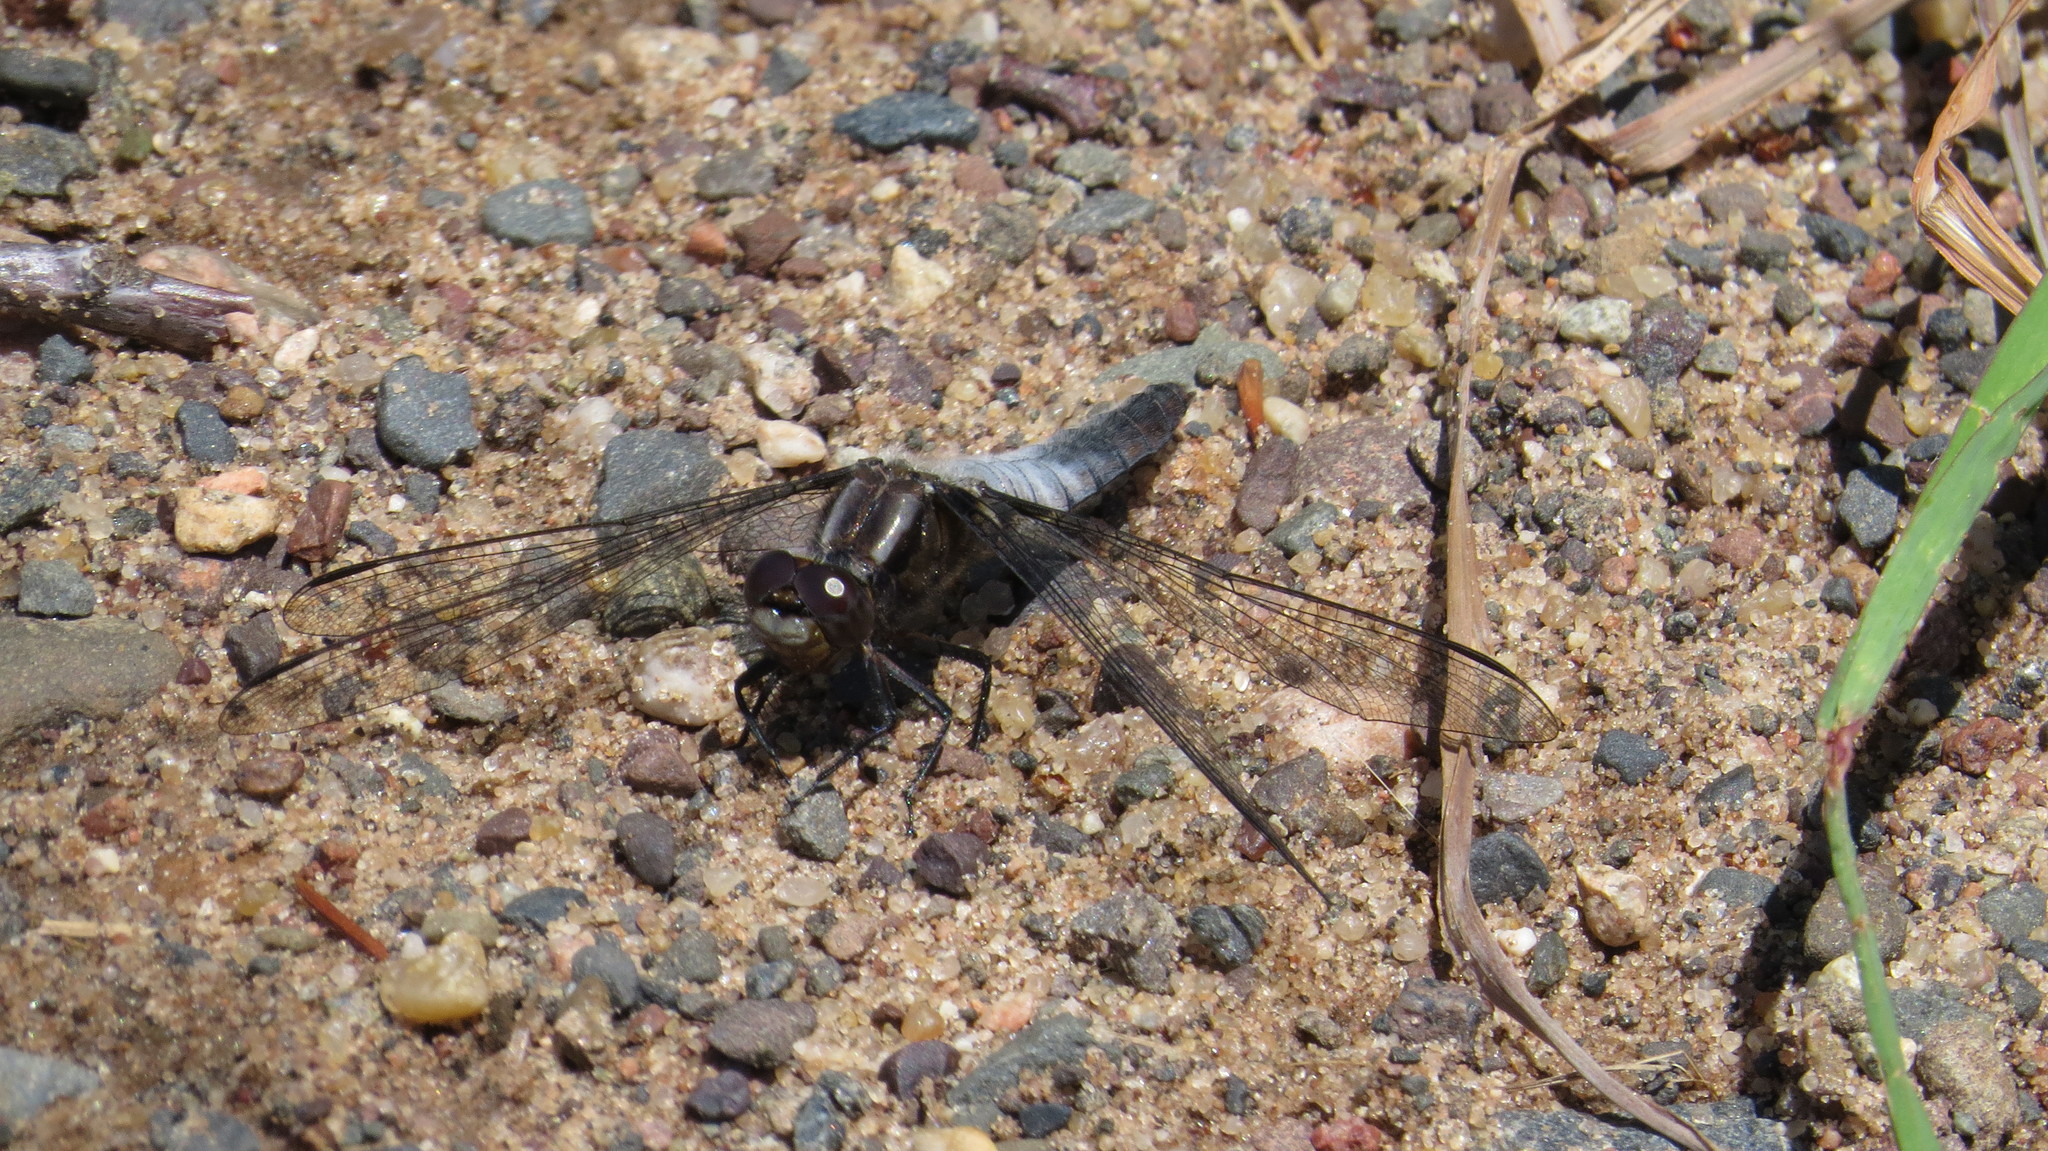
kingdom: Animalia
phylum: Arthropoda
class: Insecta
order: Odonata
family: Libellulidae
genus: Ladona
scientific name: Ladona julia
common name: Chalk-fronted corporal
